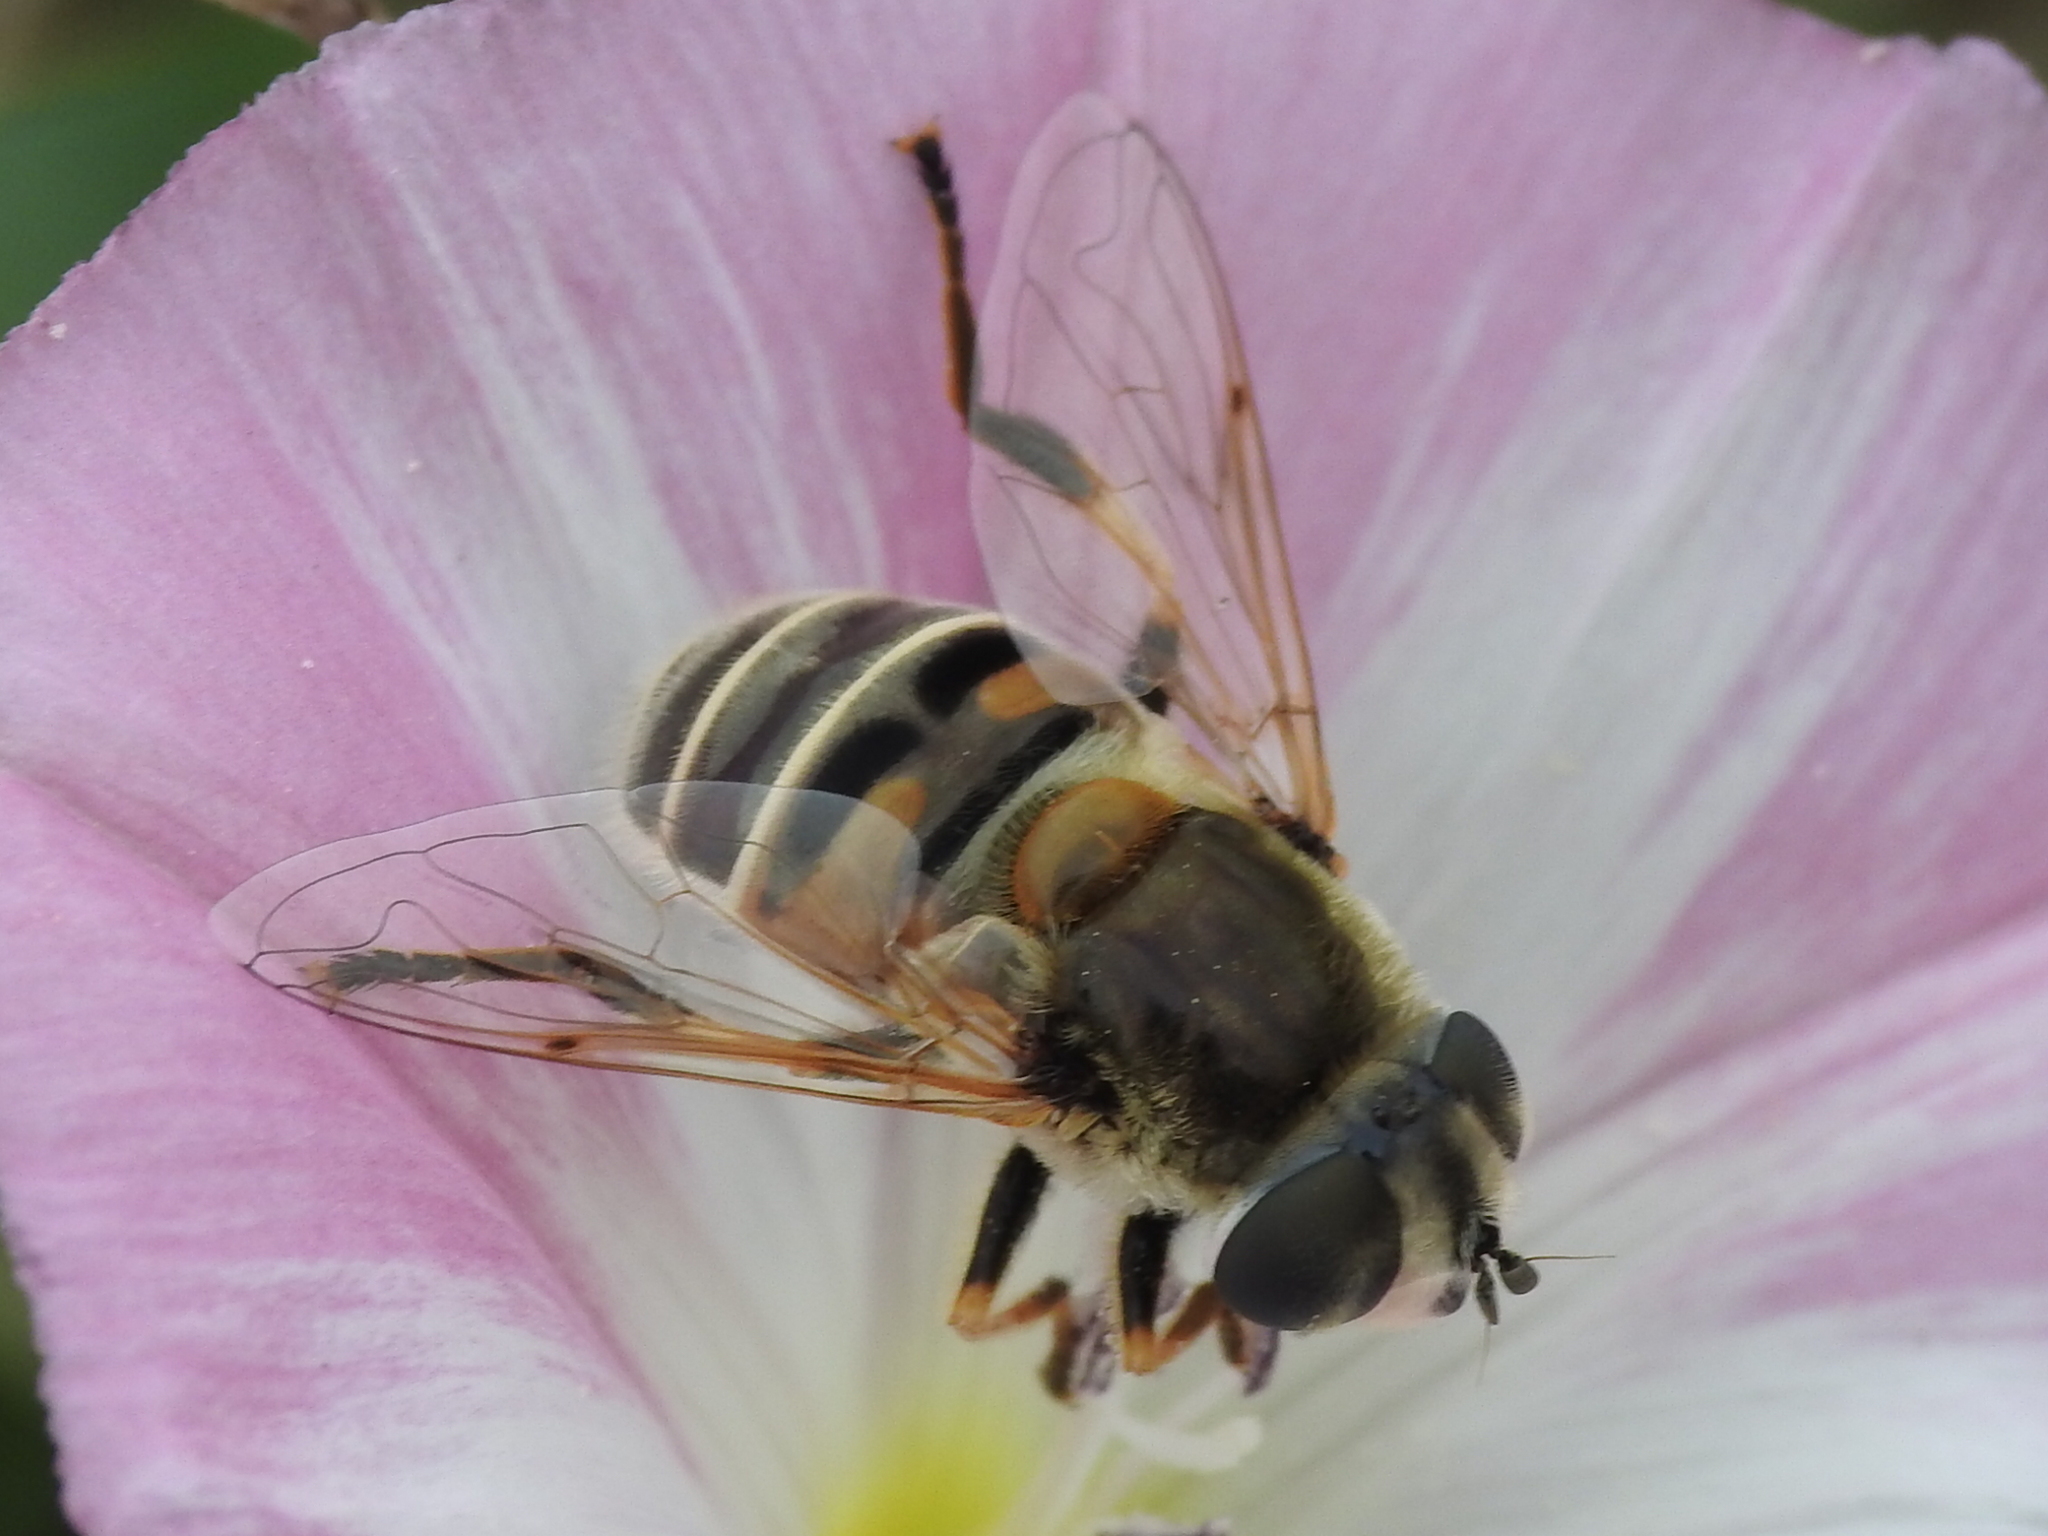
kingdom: Animalia
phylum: Arthropoda
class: Insecta
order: Diptera
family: Syrphidae
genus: Eristalis
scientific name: Eristalis stipator
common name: Yellow-shouldered drone fly
